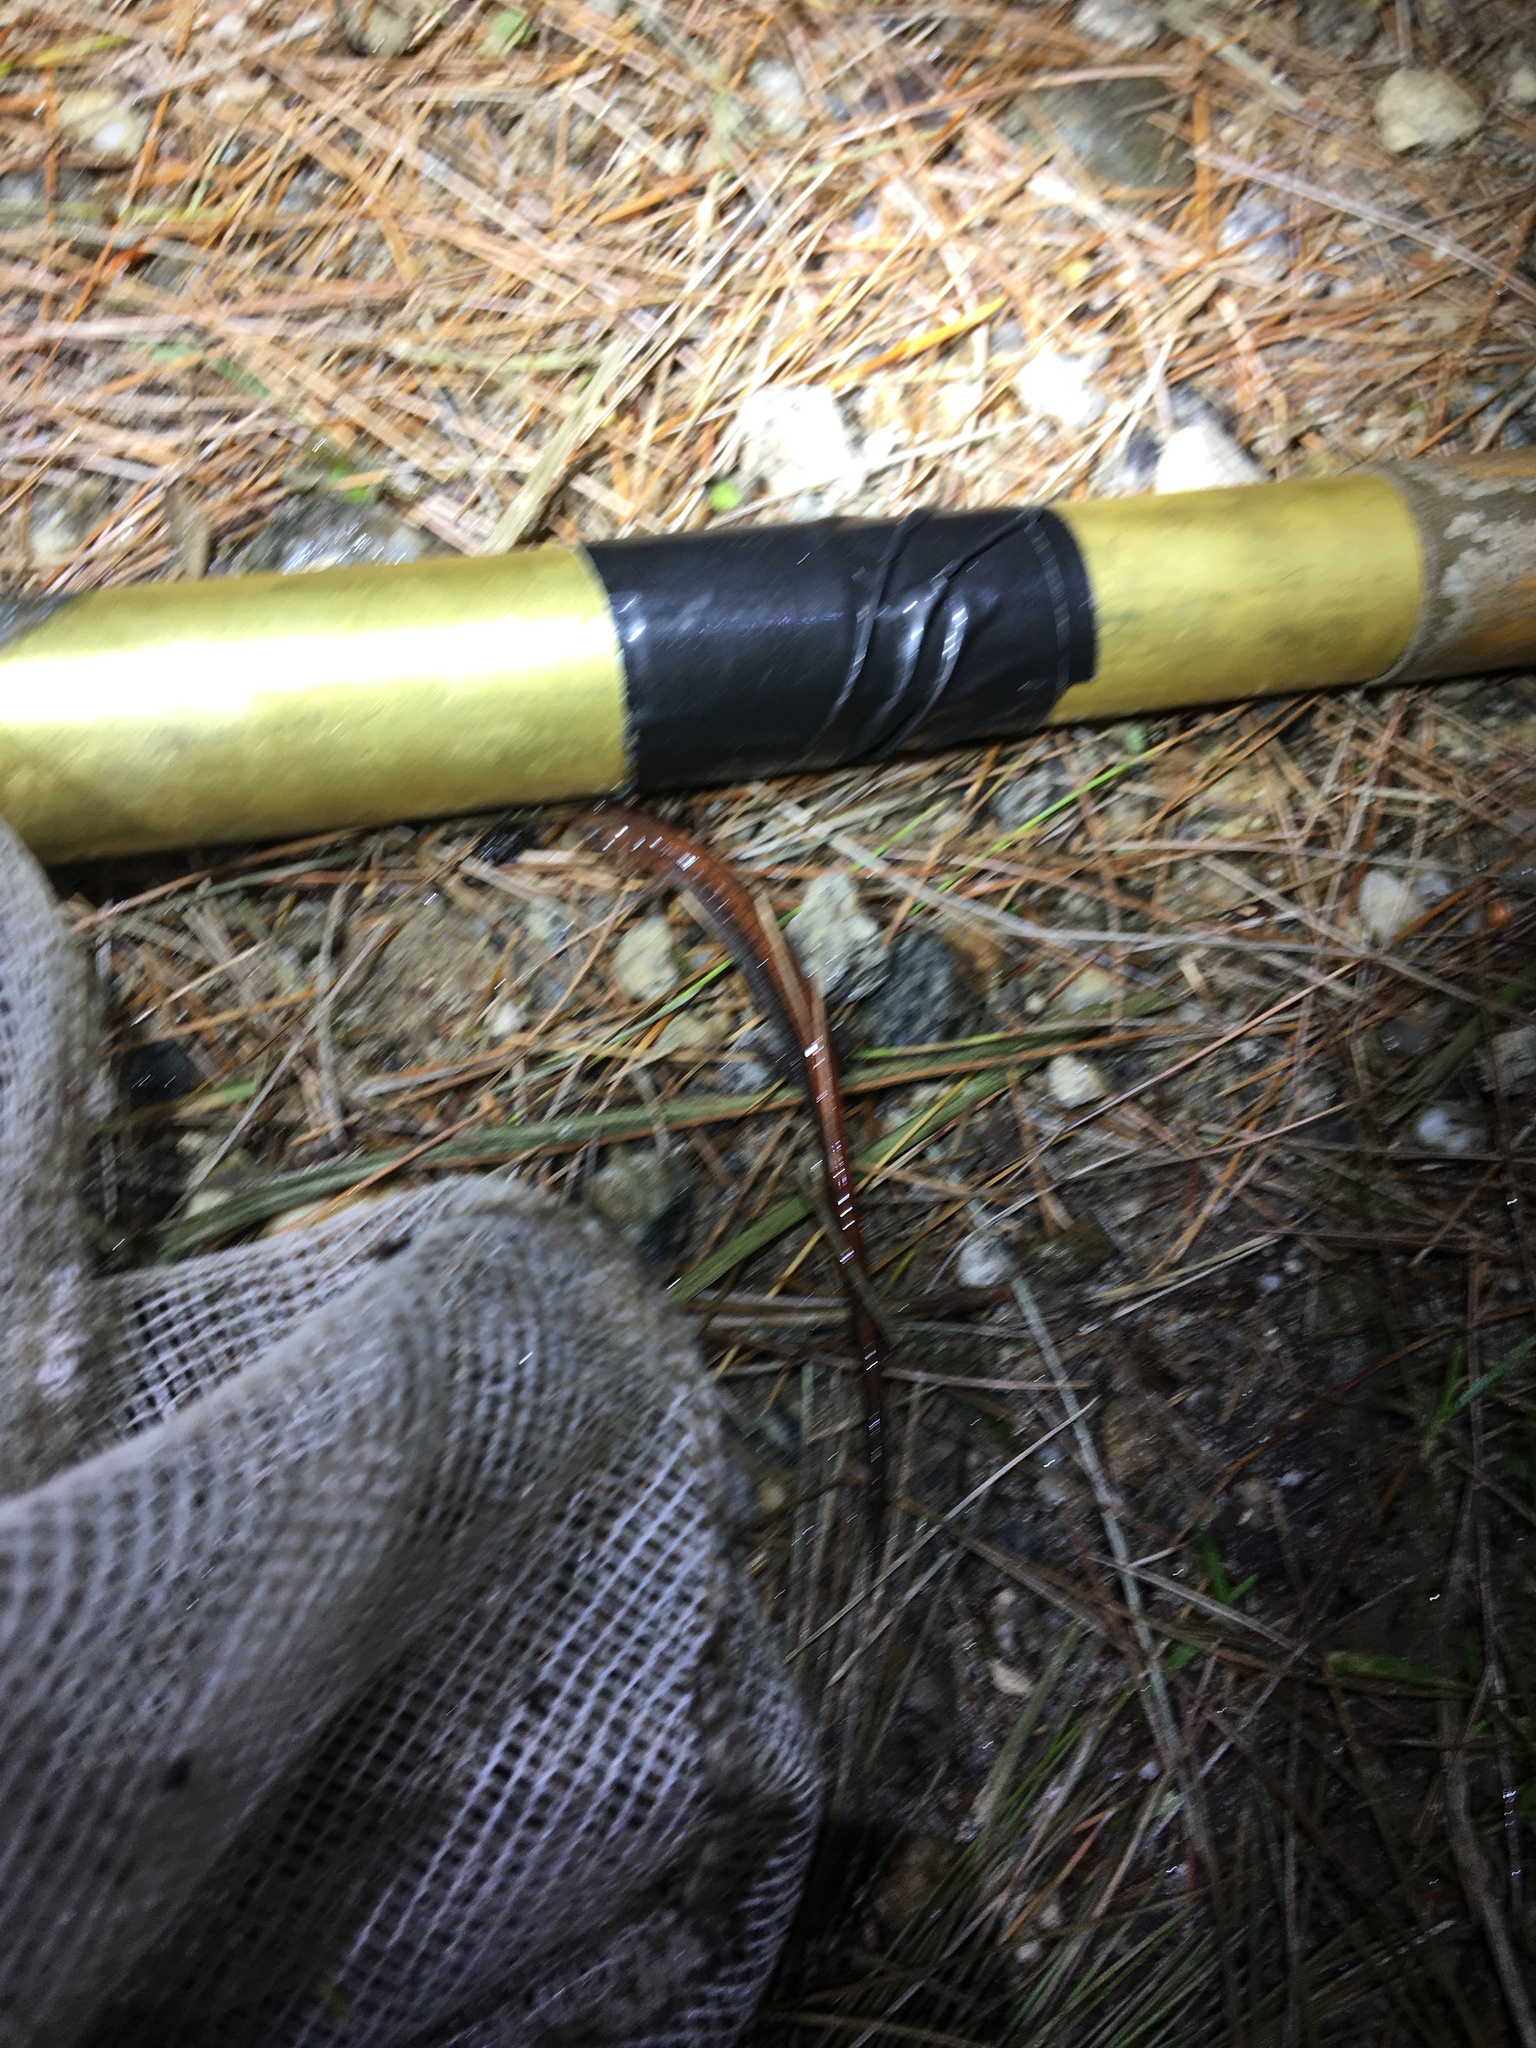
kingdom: Animalia
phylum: Chordata
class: Amphibia
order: Caudata
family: Plethodontidae
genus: Plethodon
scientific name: Plethodon cinereus
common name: Redback salamander
